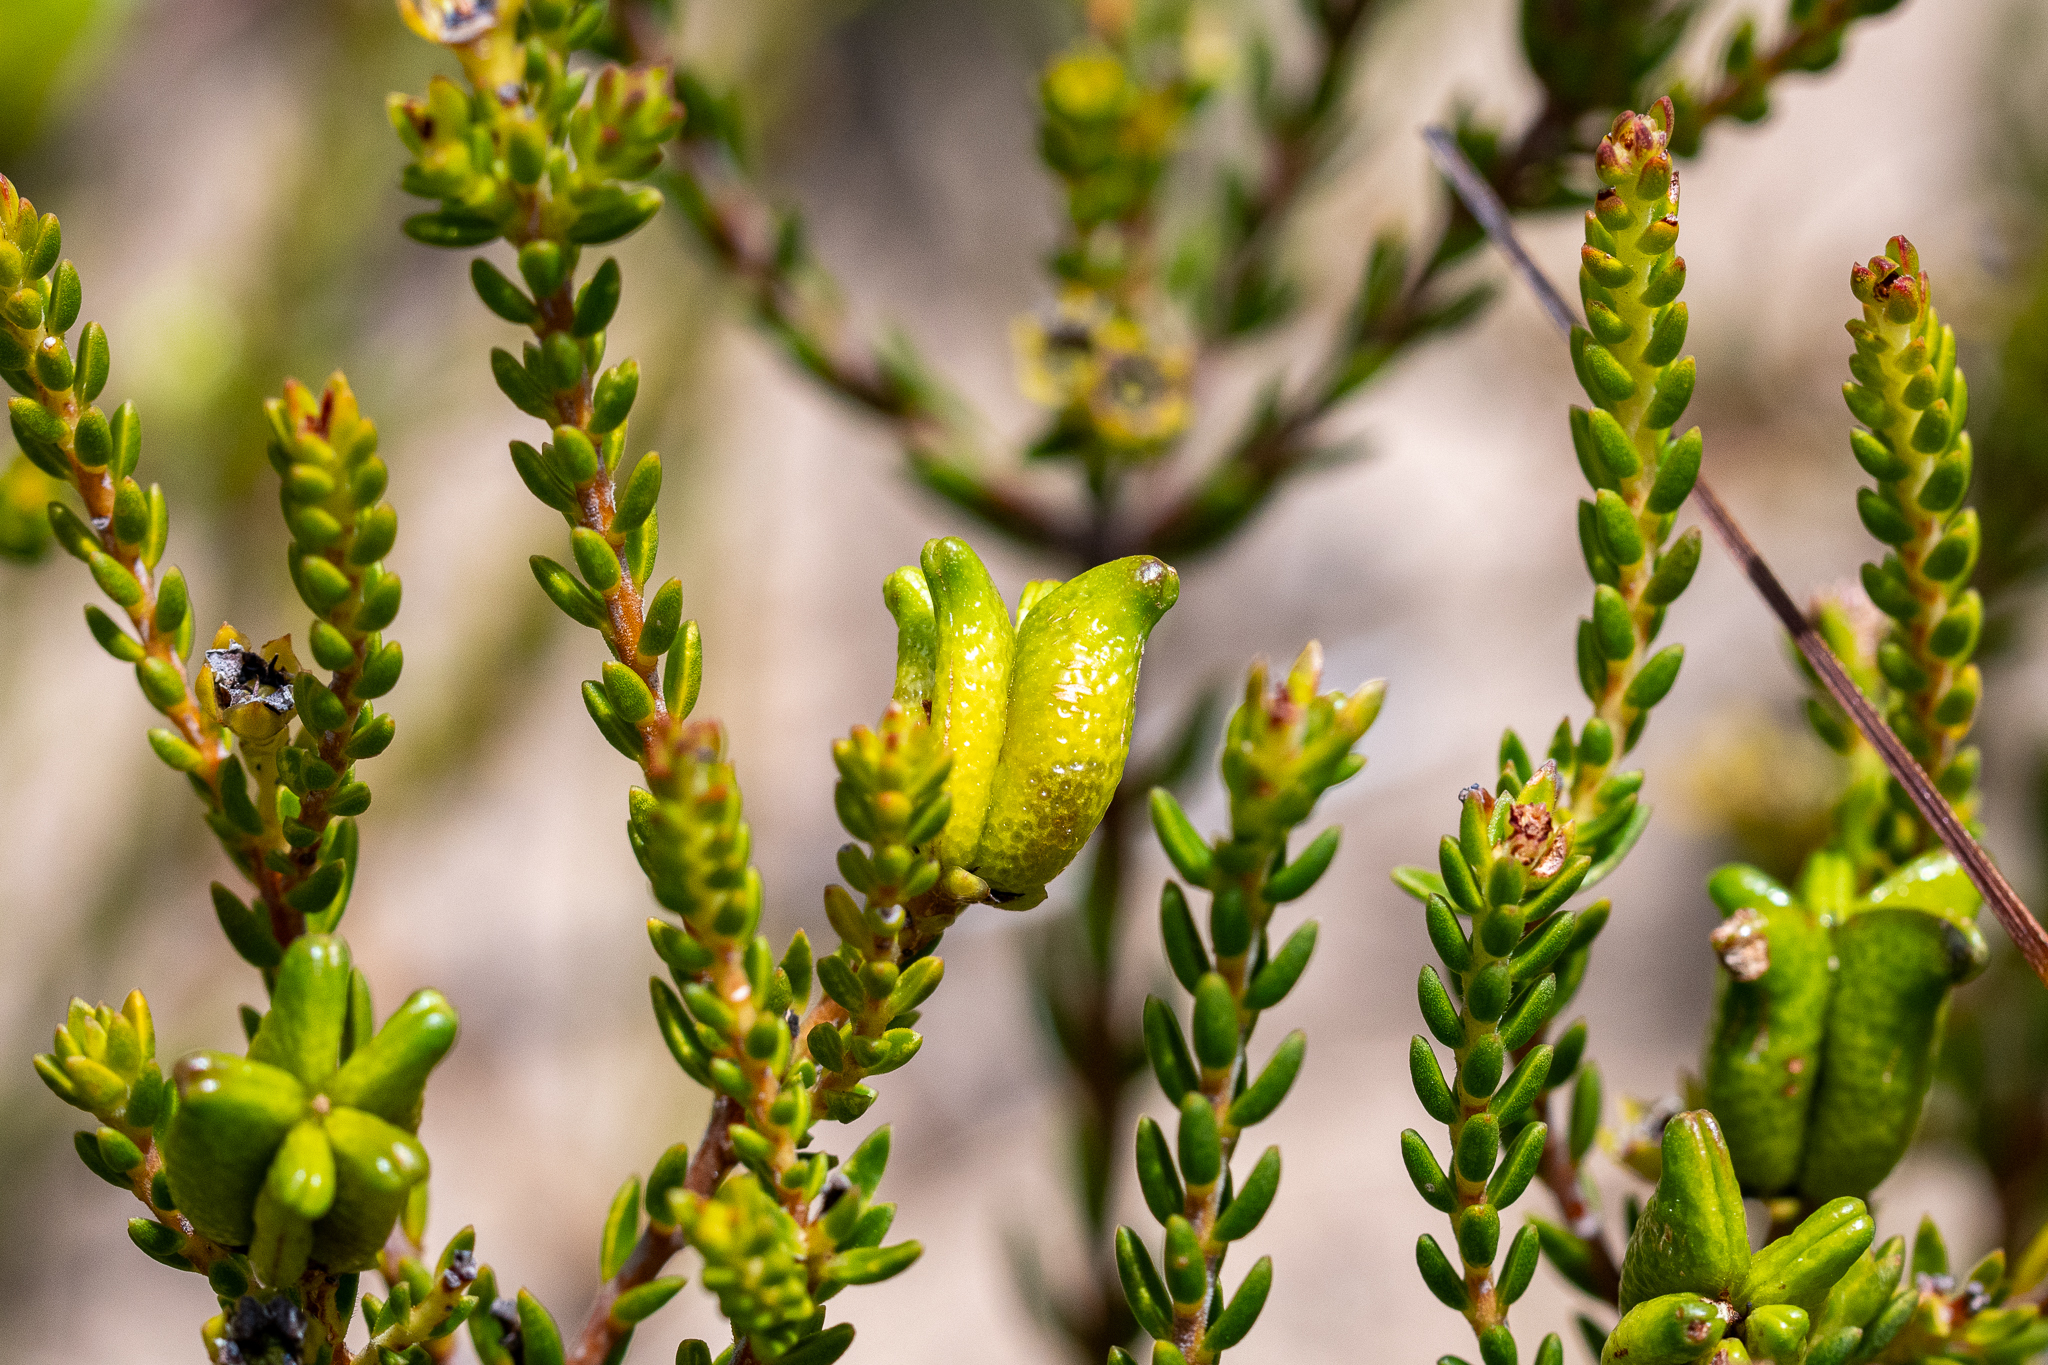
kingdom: Plantae
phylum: Tracheophyta
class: Magnoliopsida
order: Sapindales
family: Rutaceae
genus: Diosma
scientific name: Diosma oppositifolia
